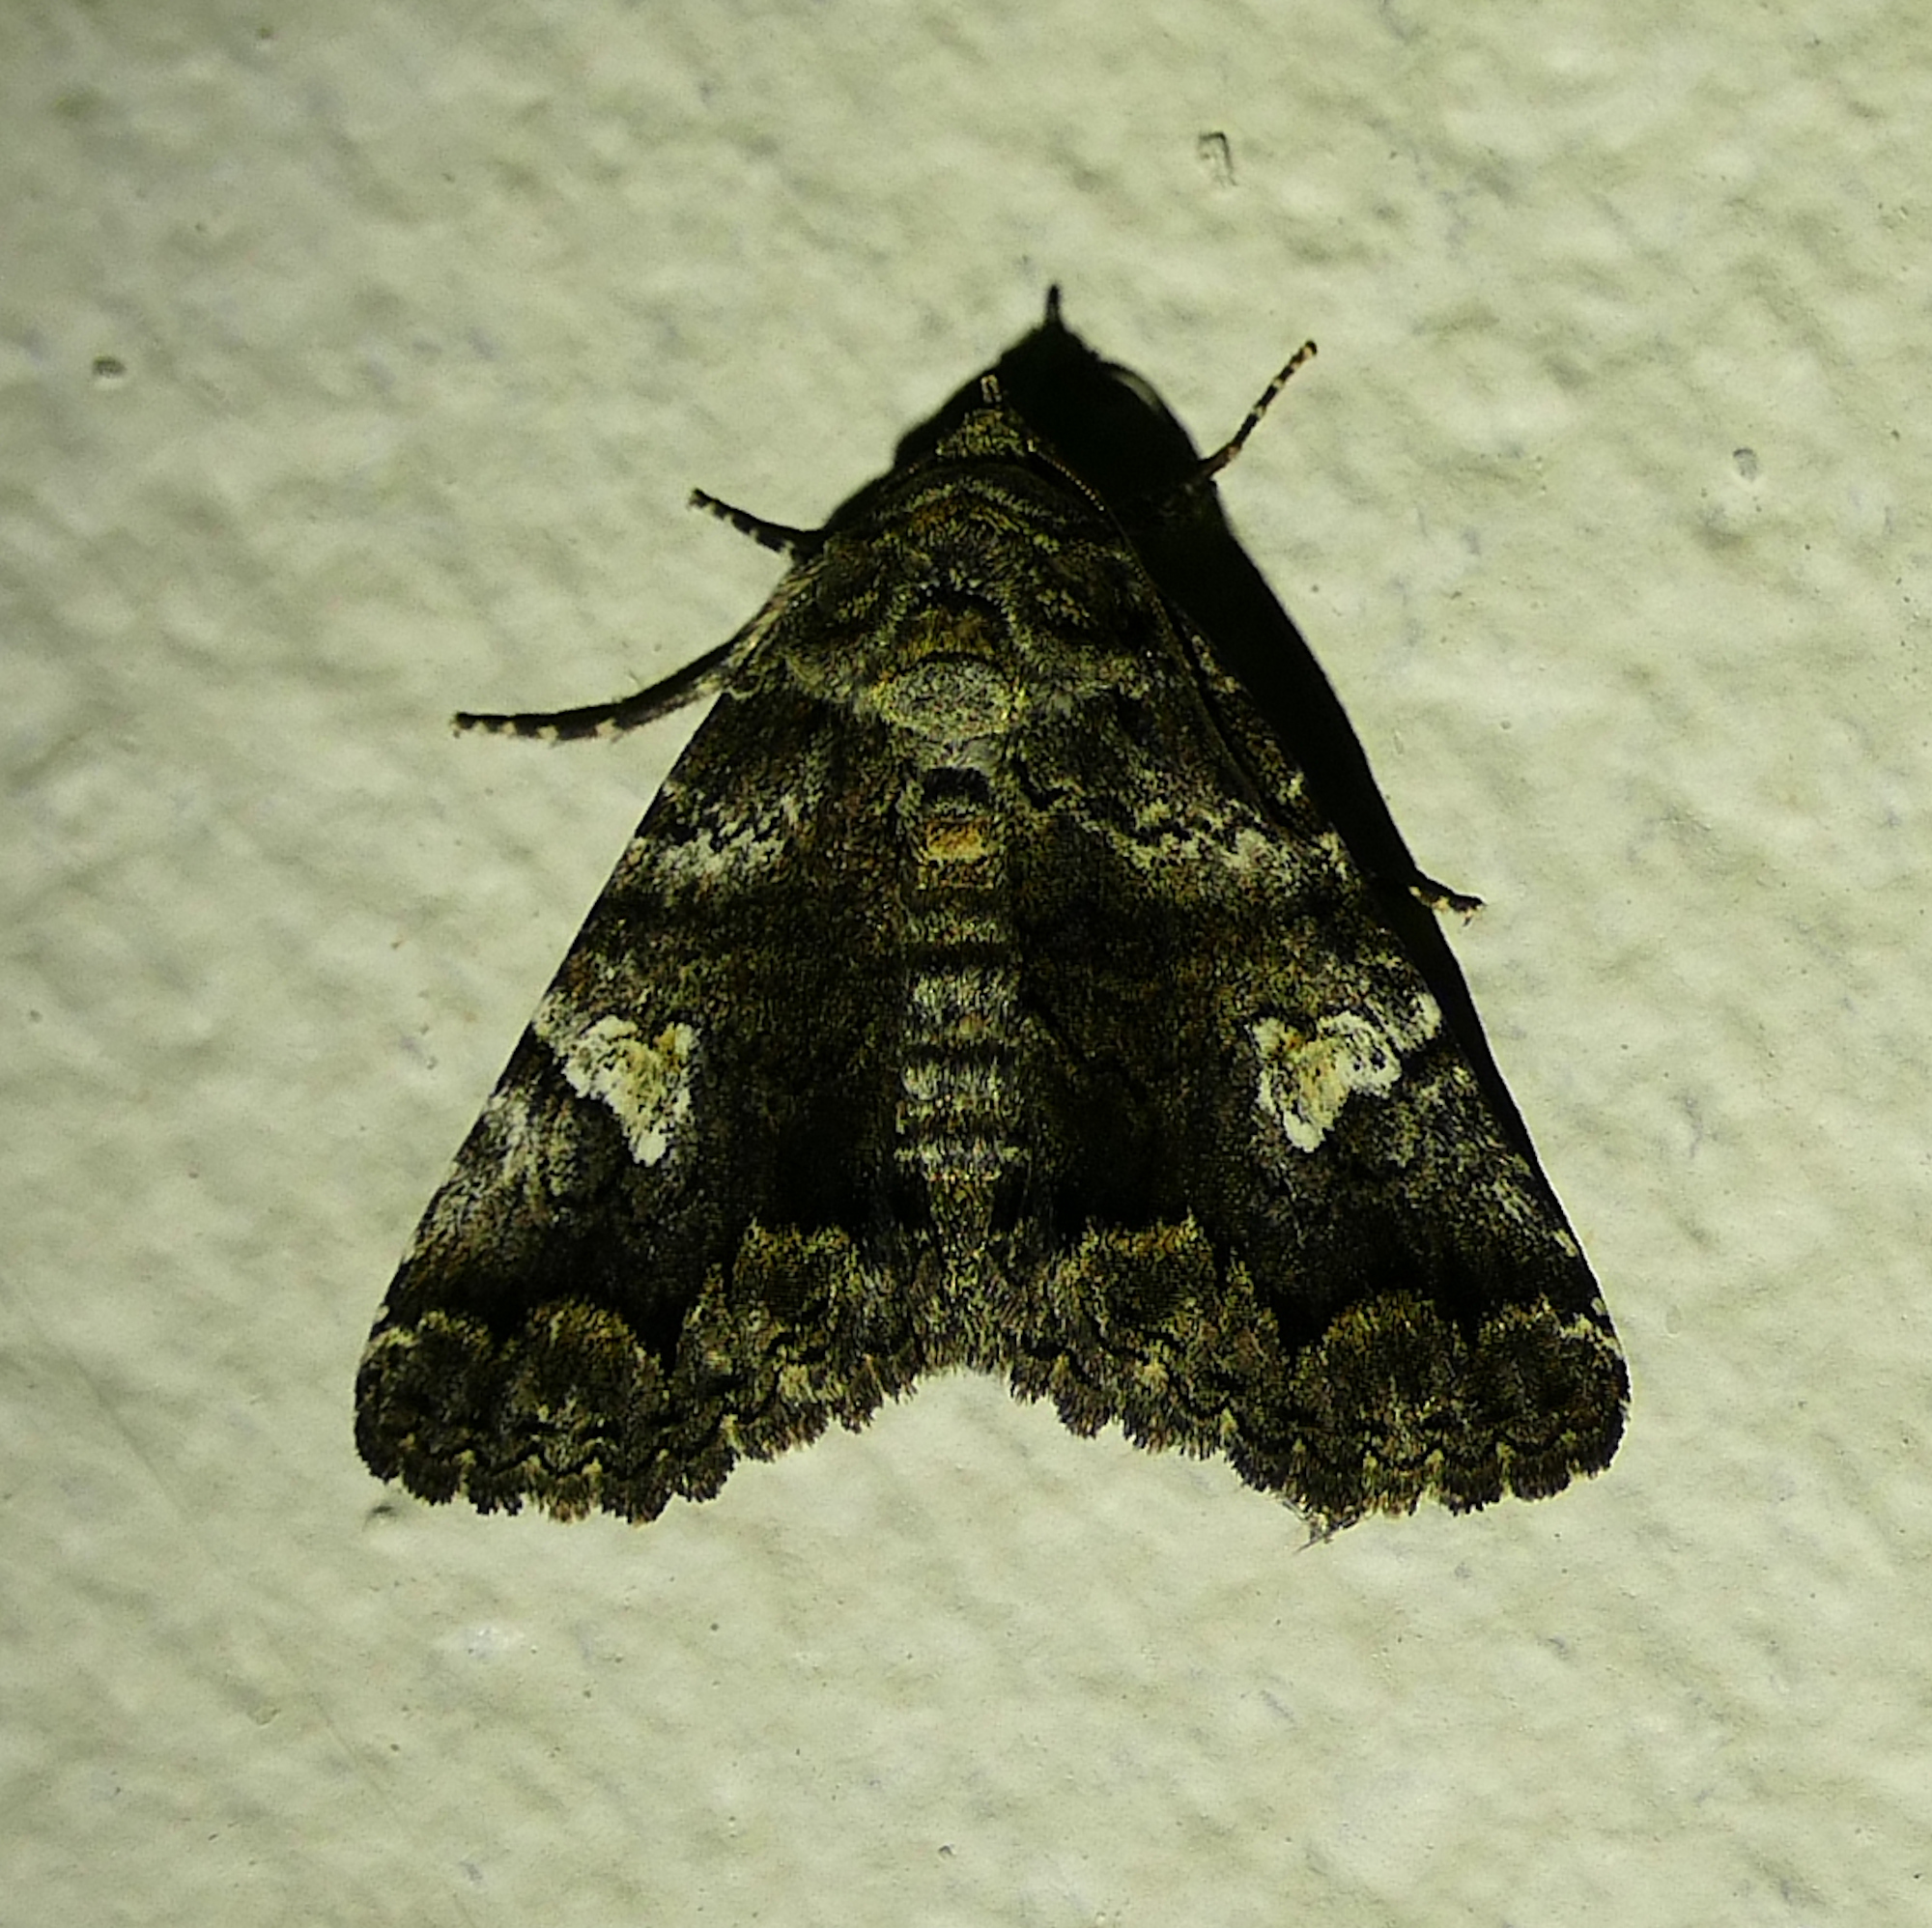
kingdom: Animalia
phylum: Arthropoda
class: Insecta
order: Lepidoptera
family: Erebidae
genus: Metria
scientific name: Metria amella
